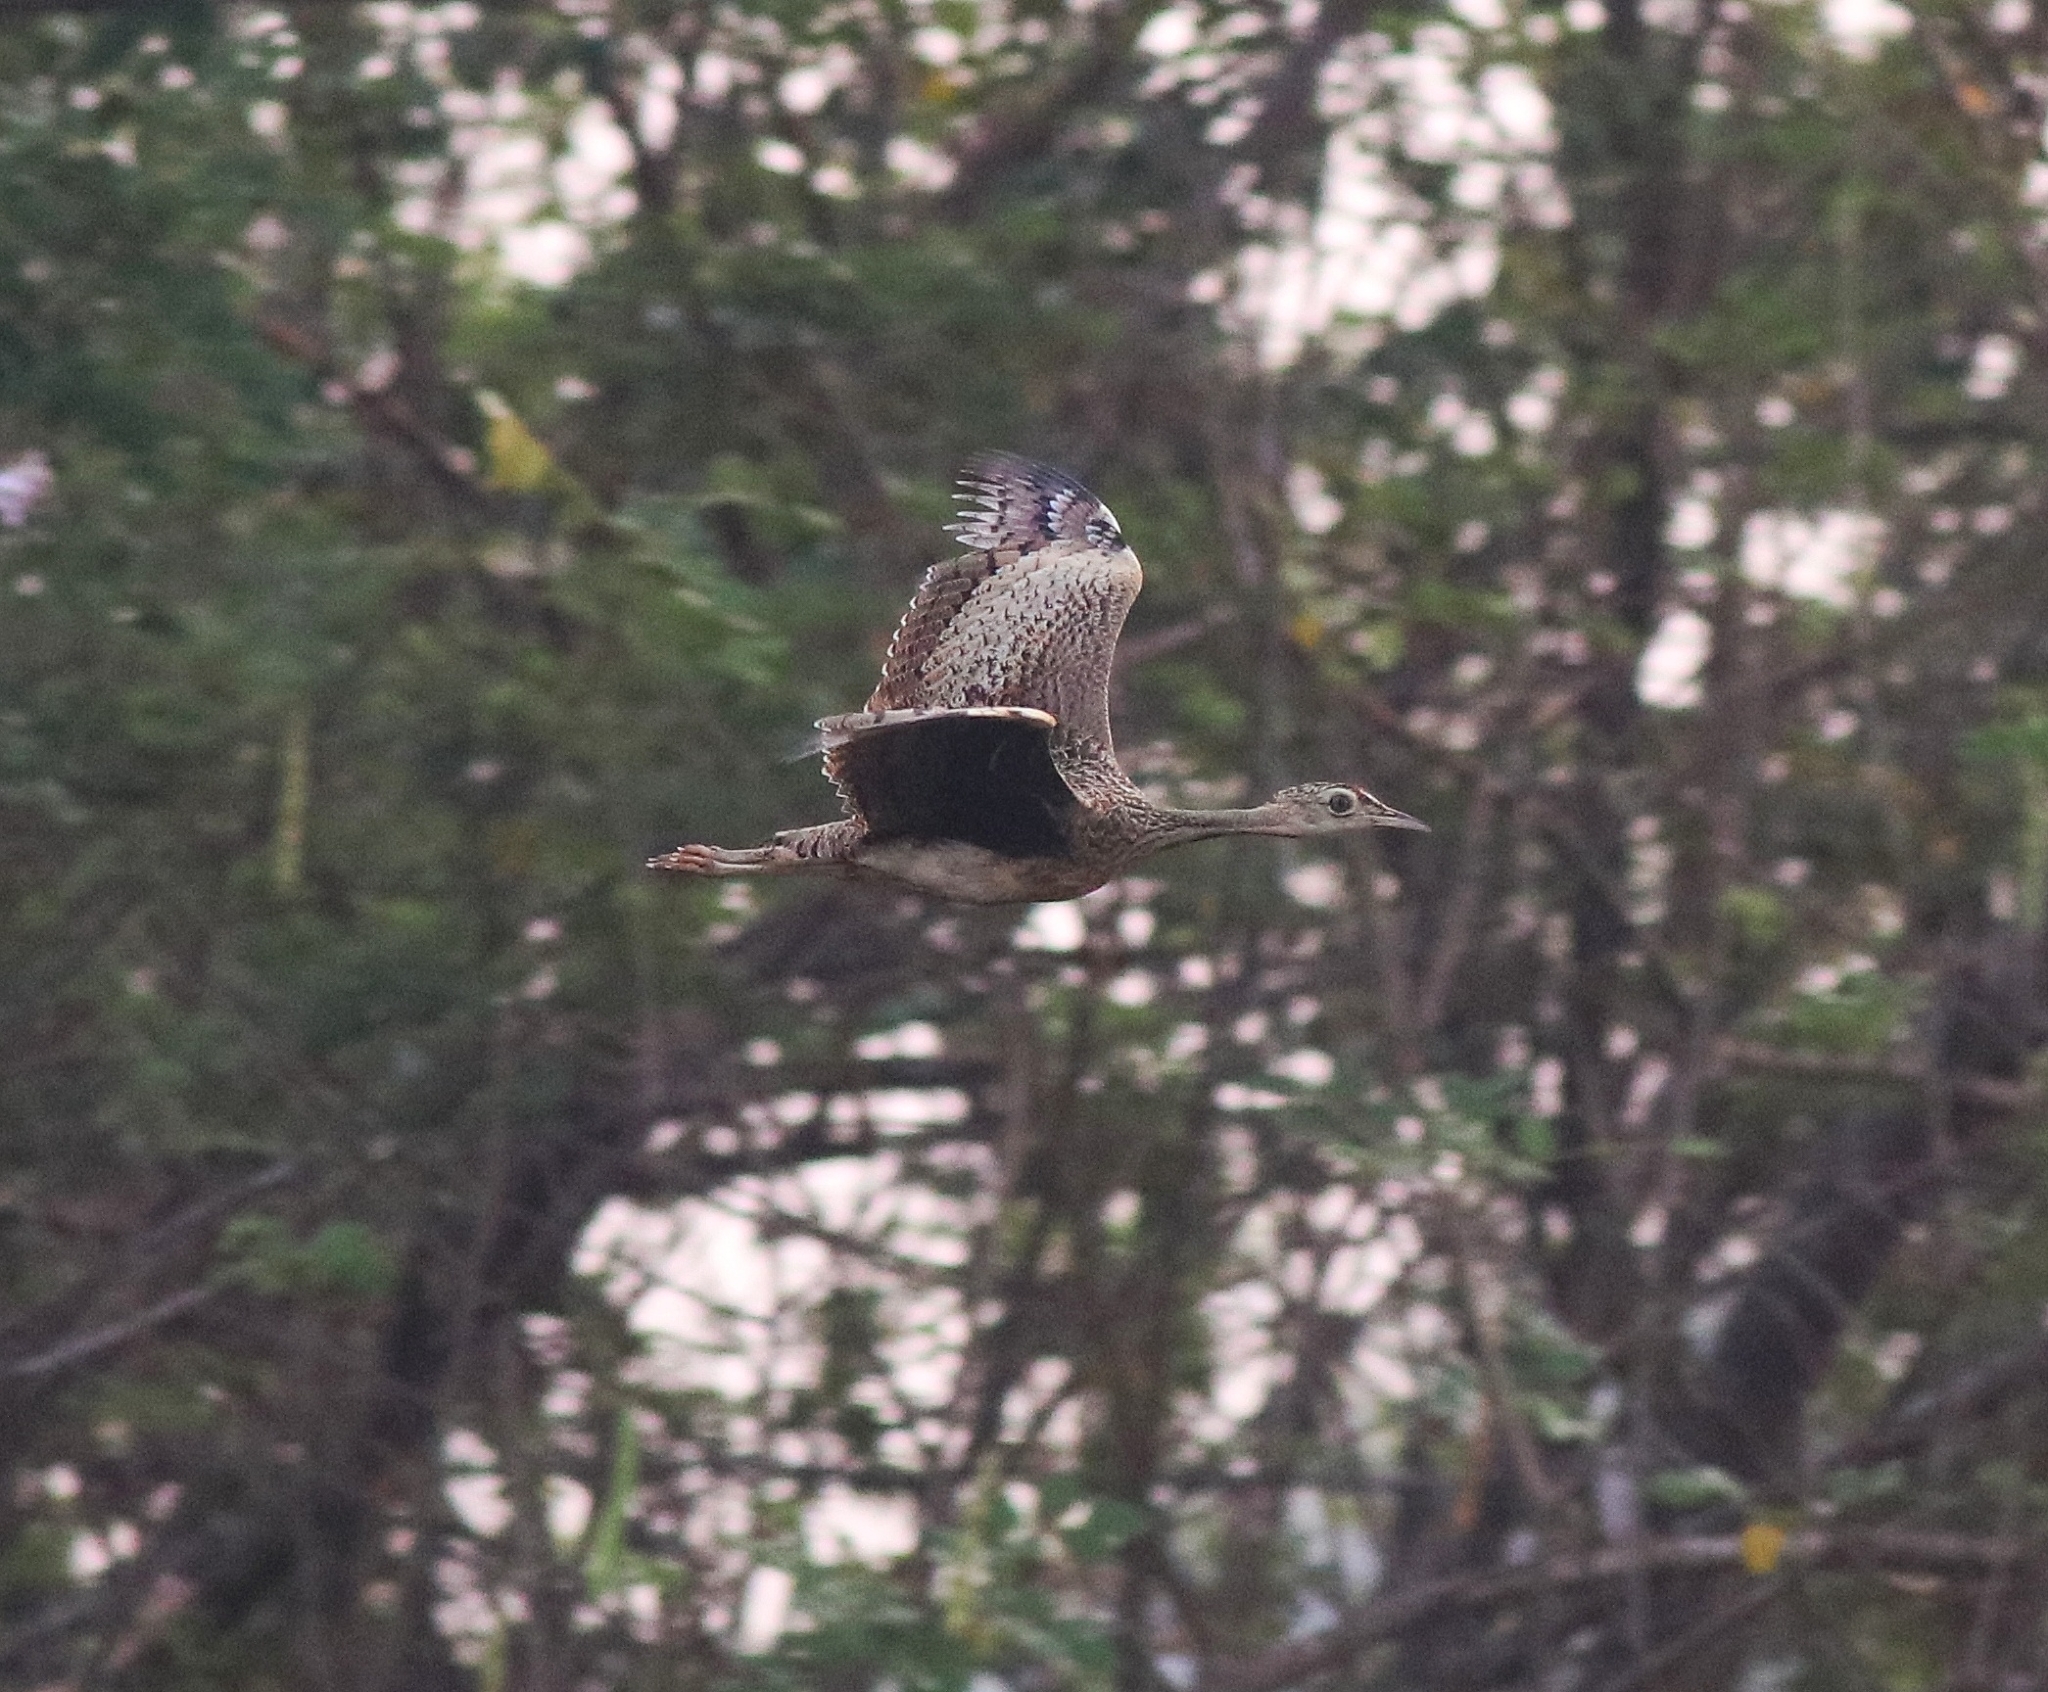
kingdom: Animalia
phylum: Chordata
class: Aves
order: Otidiformes
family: Otididae
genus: Sypheotides
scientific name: Sypheotides indicus
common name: Lesser florican
